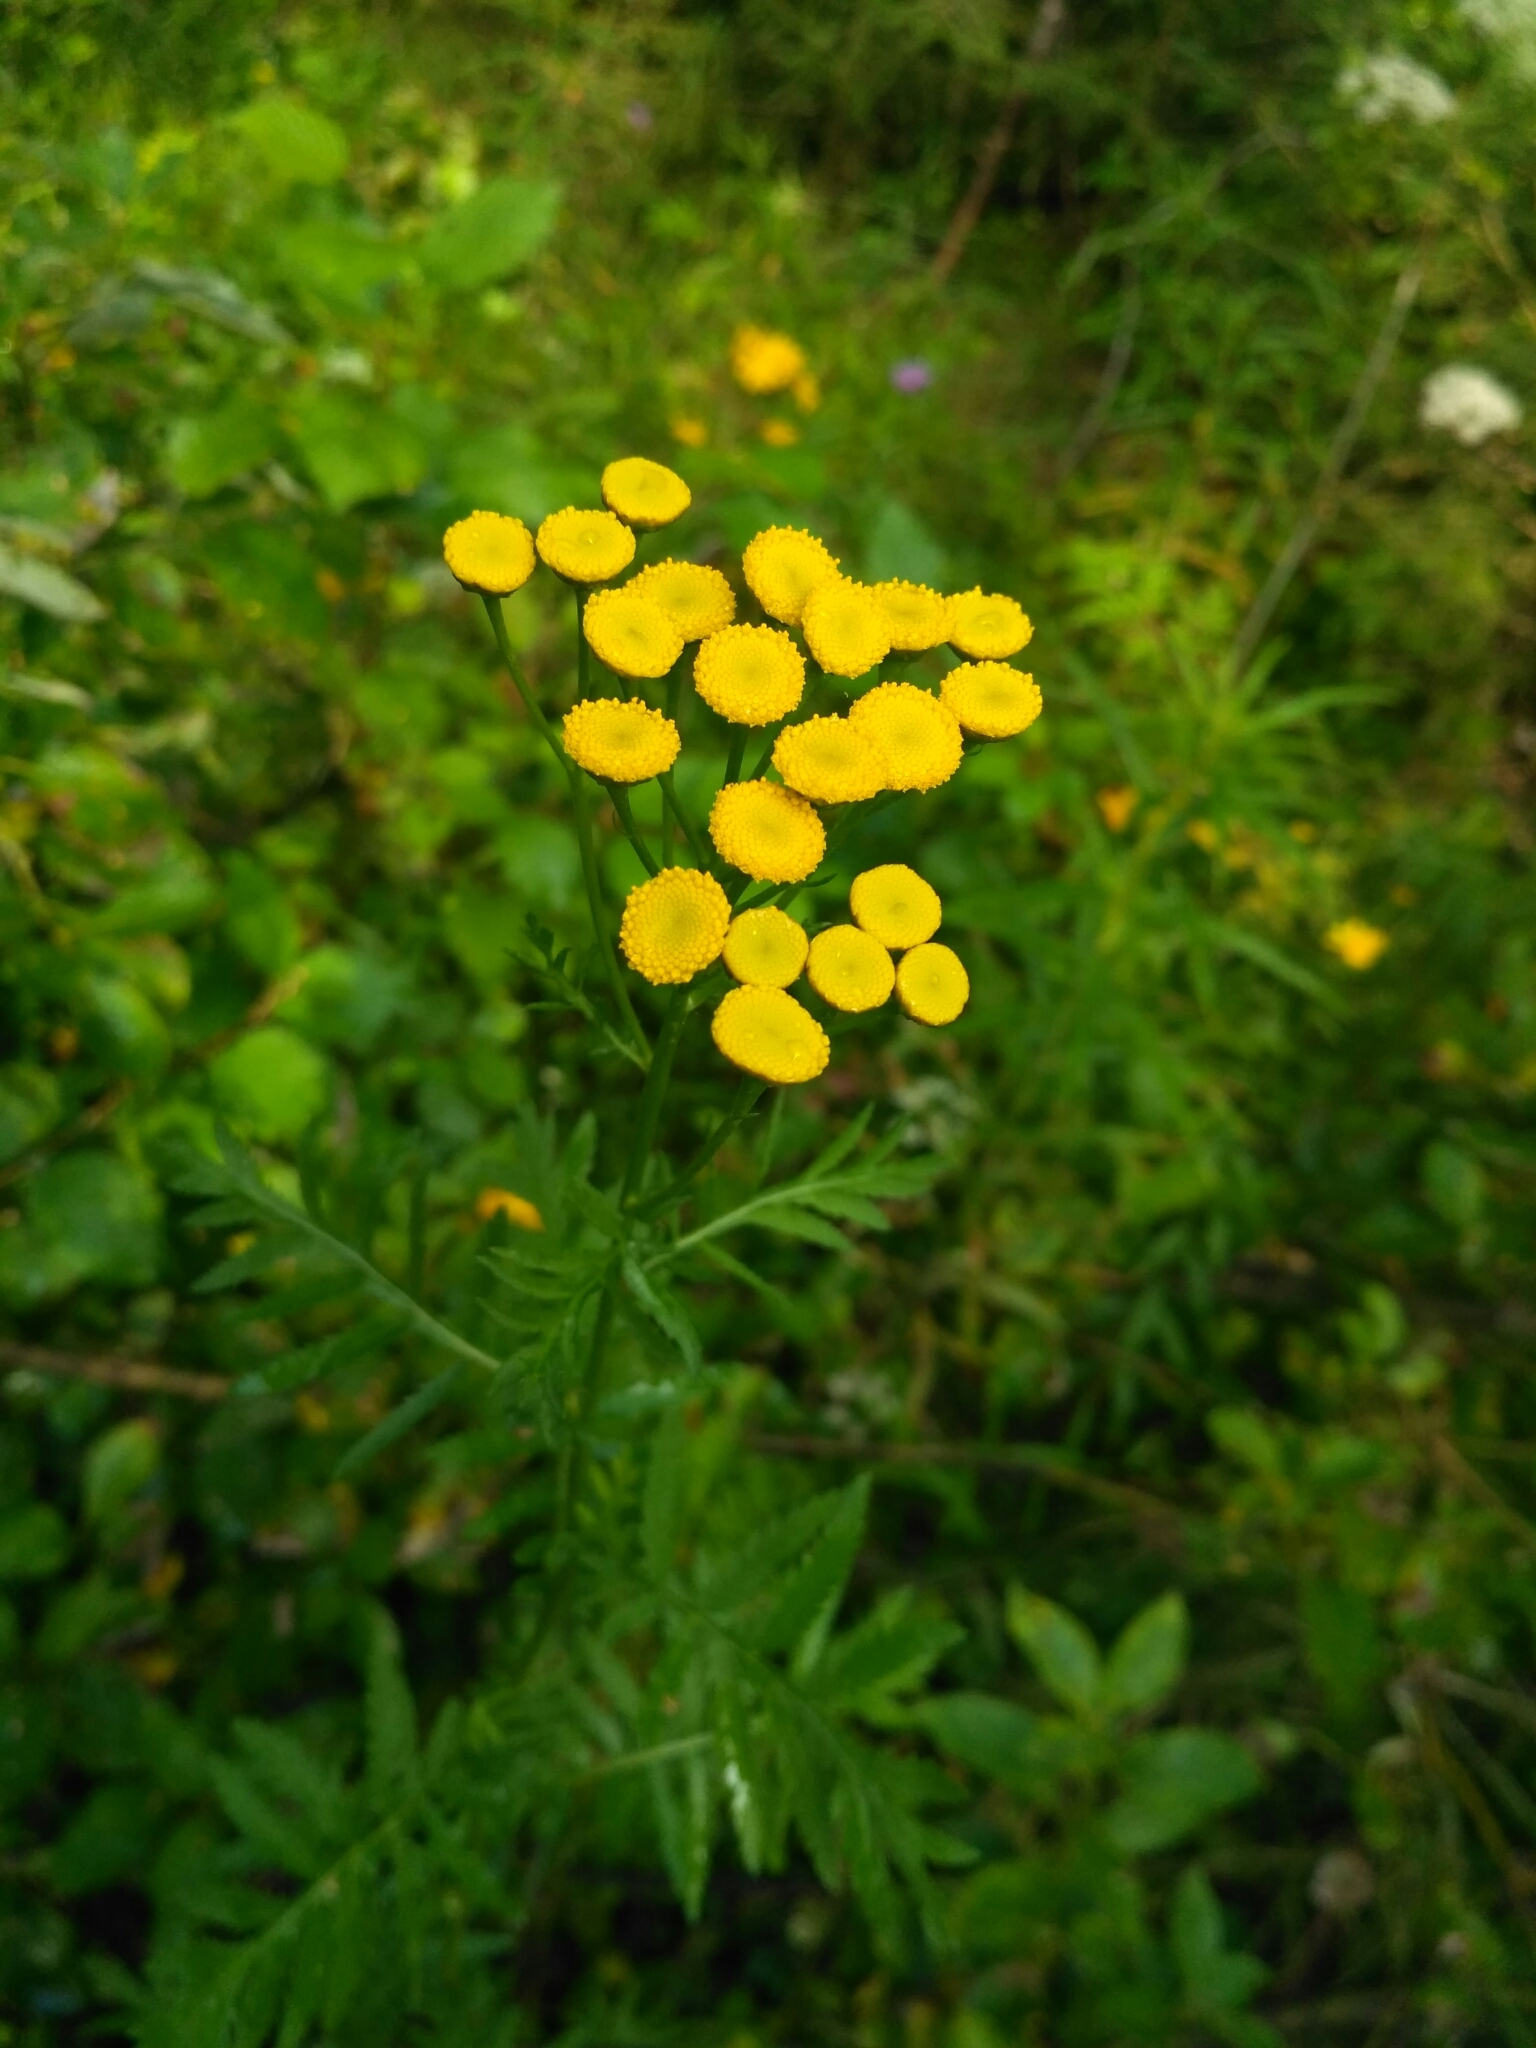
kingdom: Plantae
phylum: Tracheophyta
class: Magnoliopsida
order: Asterales
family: Asteraceae
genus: Tanacetum
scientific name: Tanacetum vulgare
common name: Common tansy
